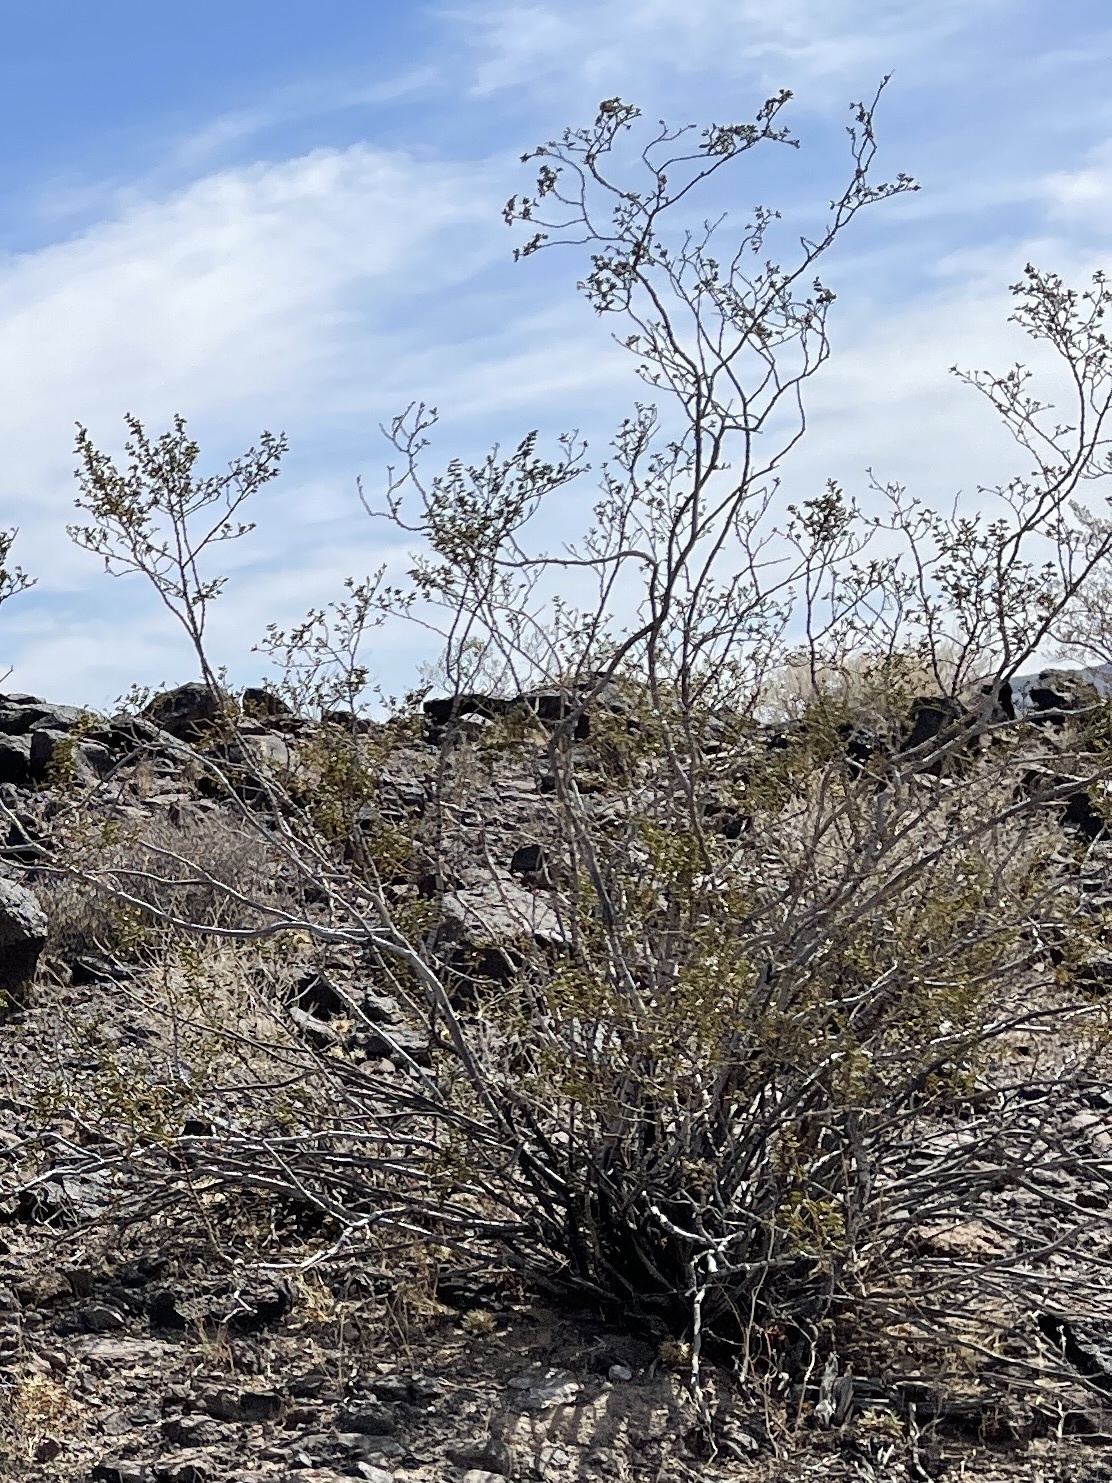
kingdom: Plantae
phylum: Tracheophyta
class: Magnoliopsida
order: Zygophyllales
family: Zygophyllaceae
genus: Larrea
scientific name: Larrea tridentata
